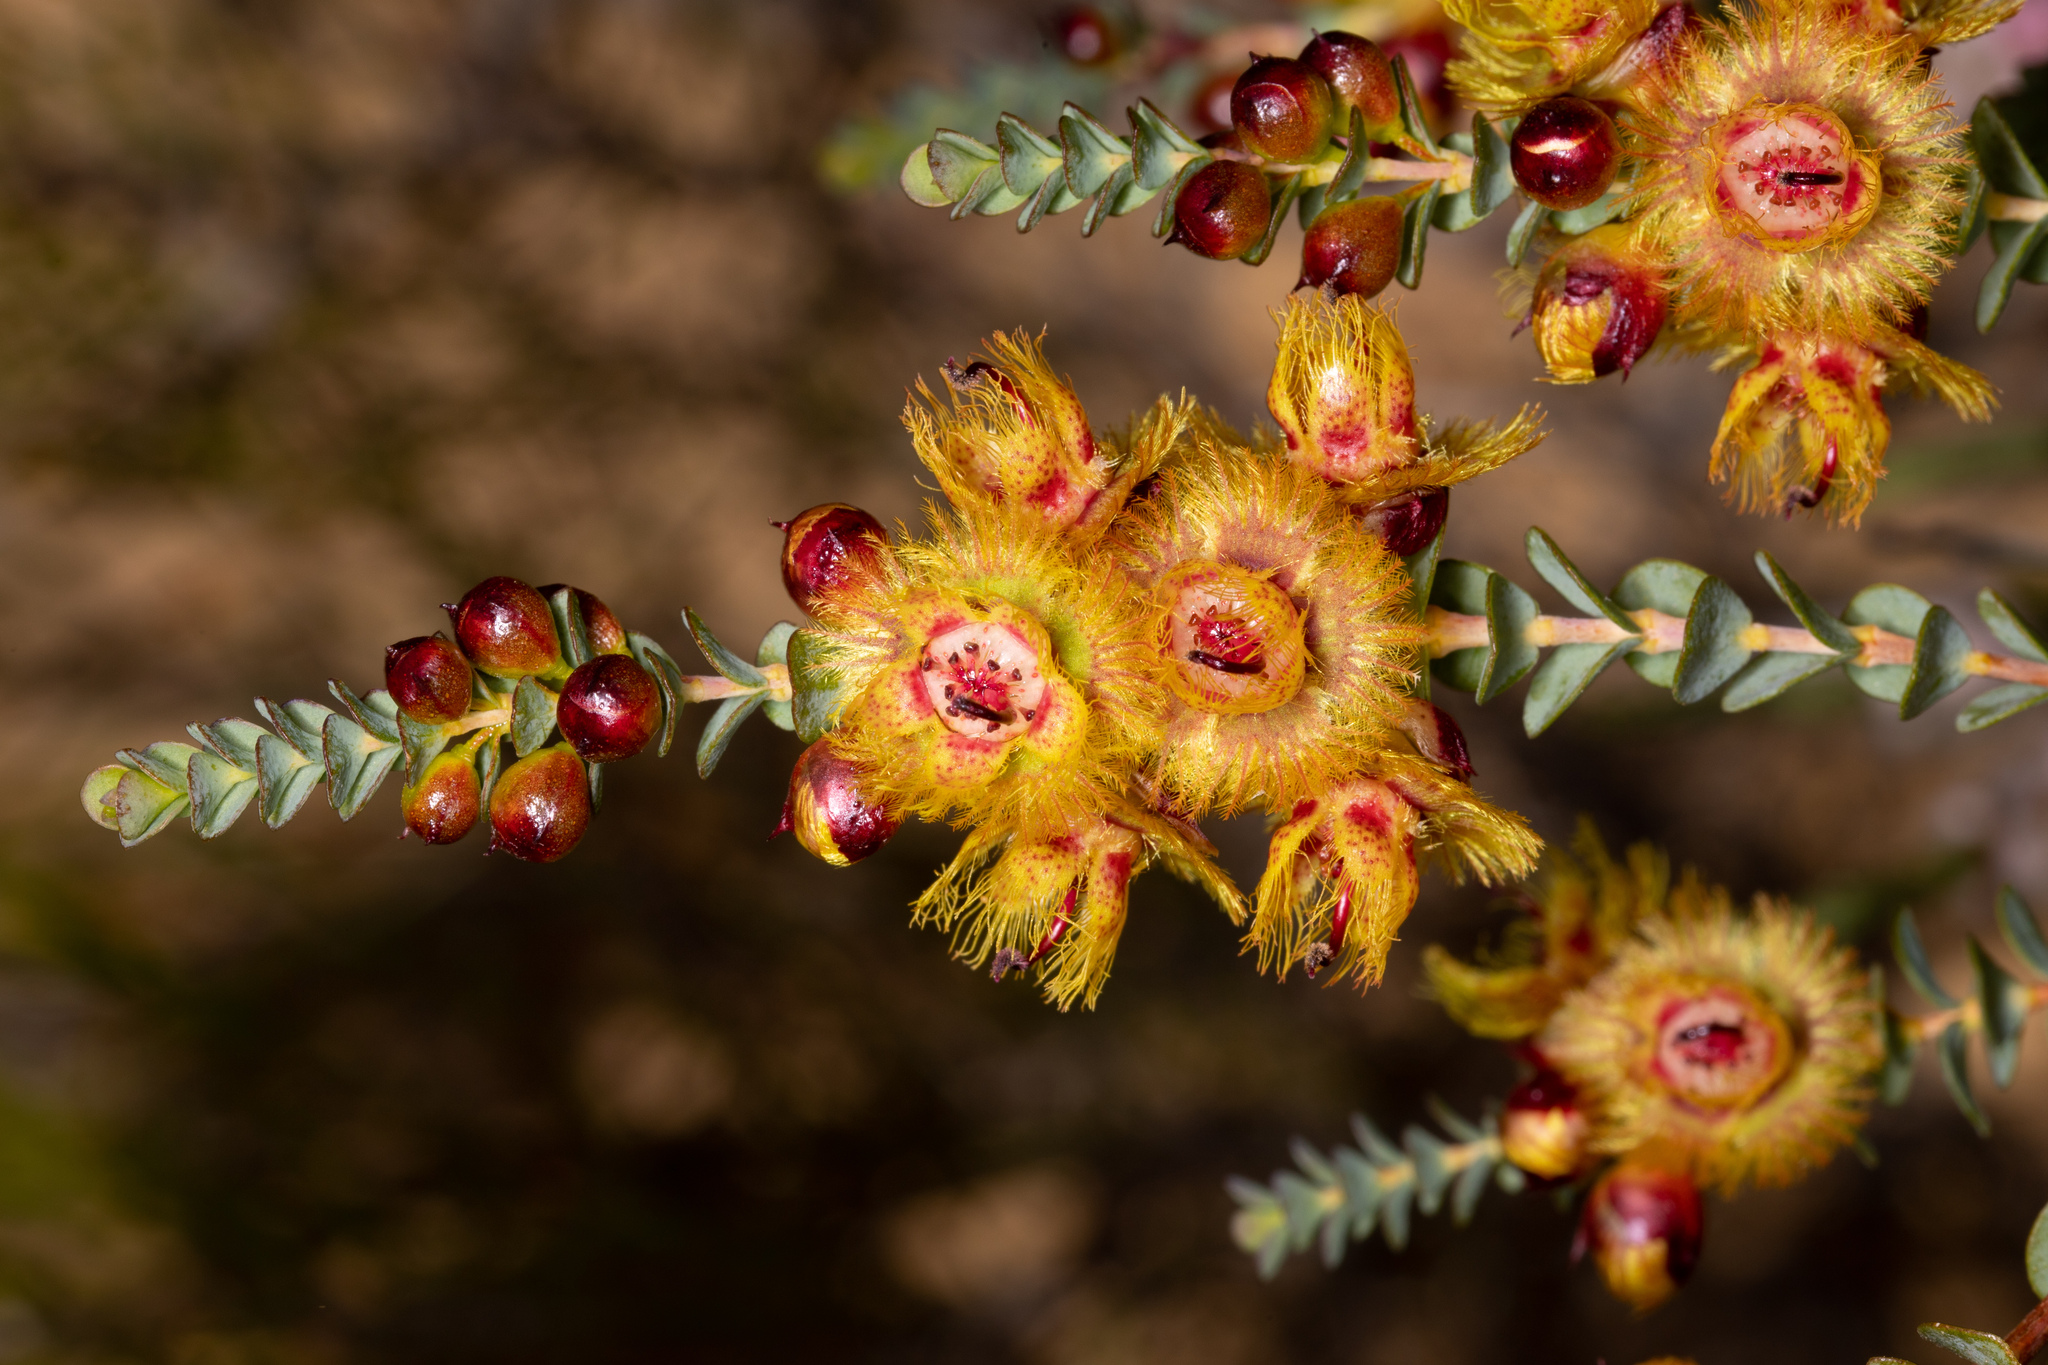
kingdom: Plantae
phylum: Tracheophyta
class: Magnoliopsida
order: Myrtales
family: Myrtaceae
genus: Verticordia
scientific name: Verticordia chrysostachys
